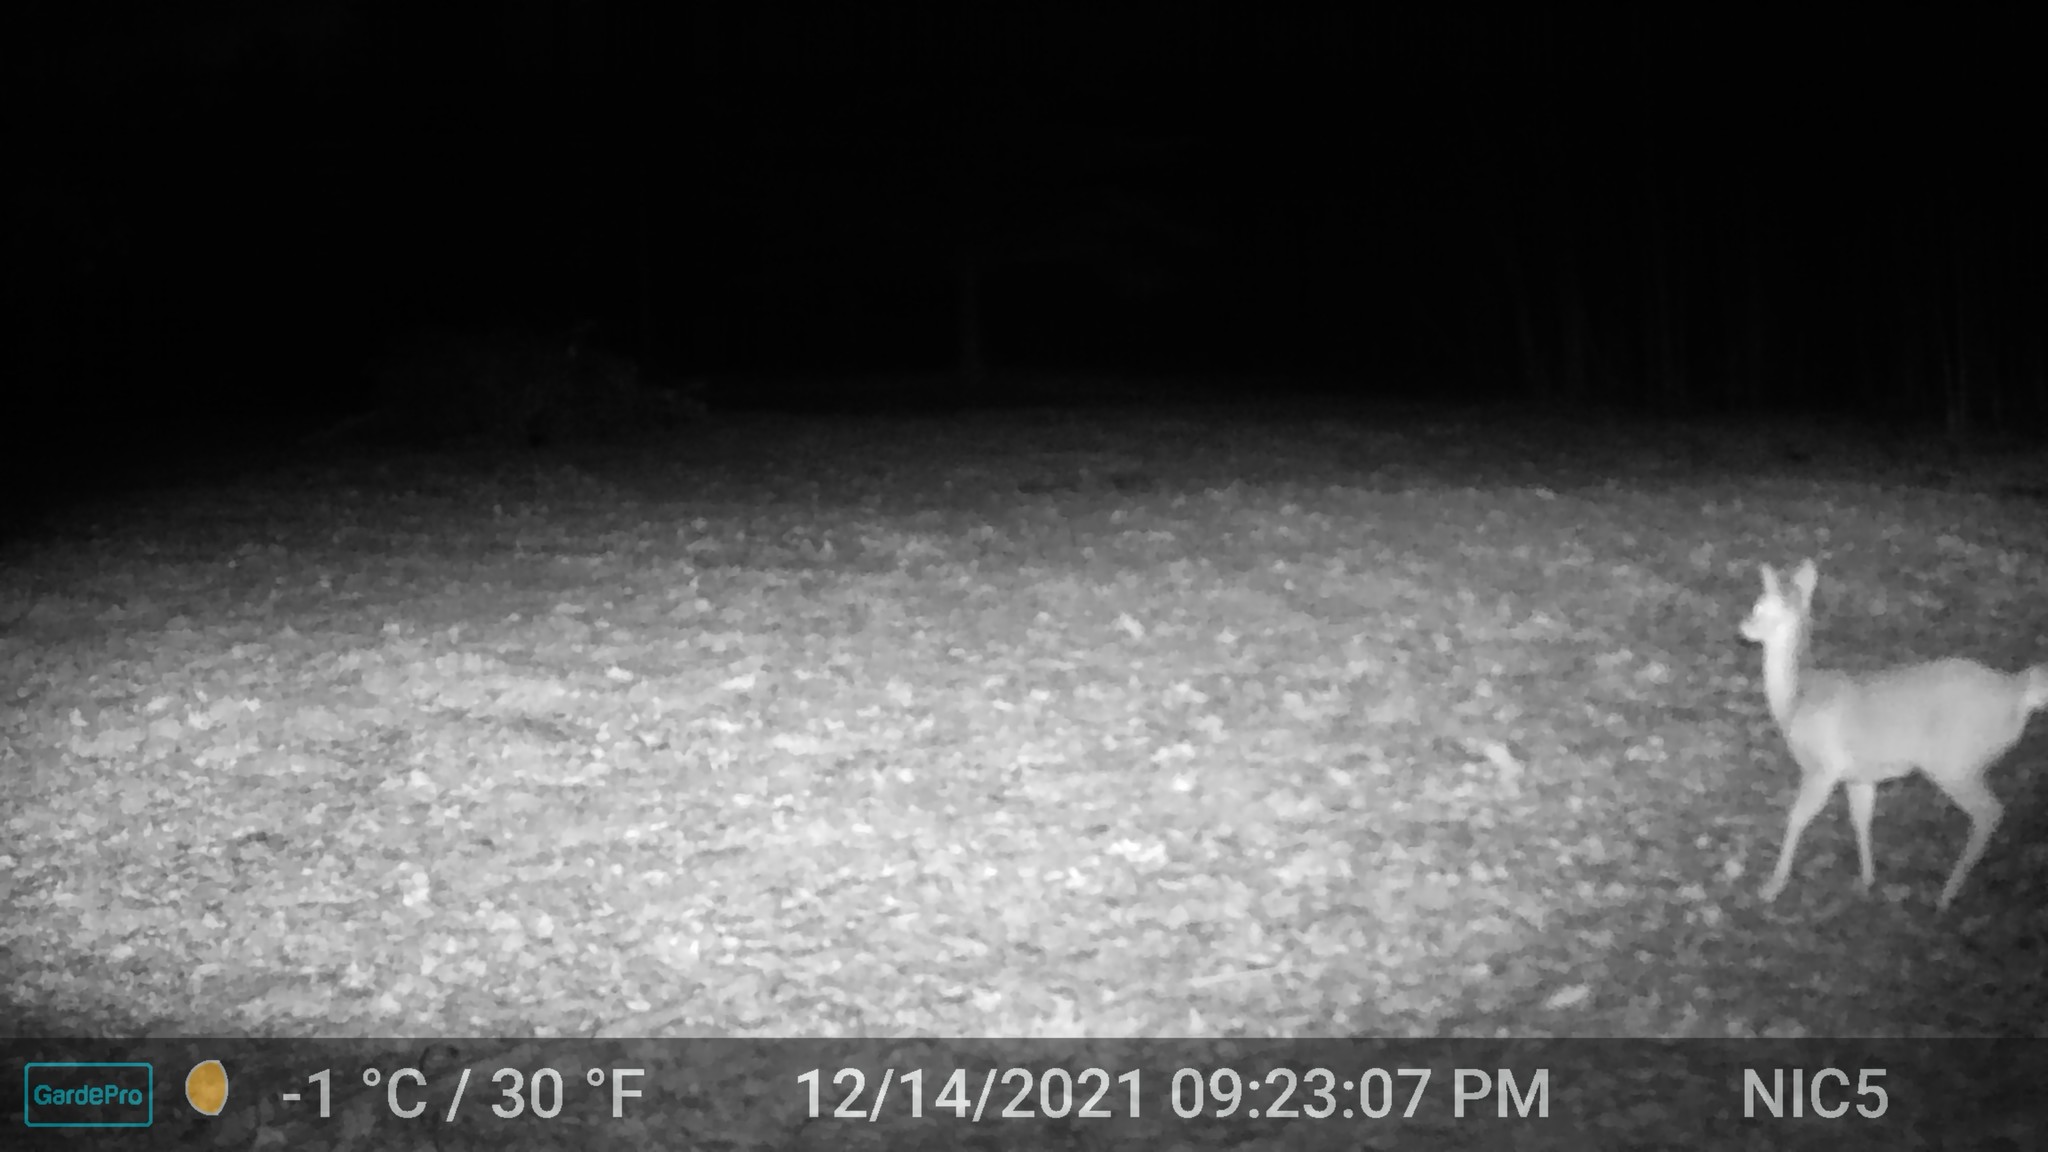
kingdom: Animalia
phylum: Chordata
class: Mammalia
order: Artiodactyla
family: Cervidae
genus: Odocoileus
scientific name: Odocoileus virginianus
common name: White-tailed deer
